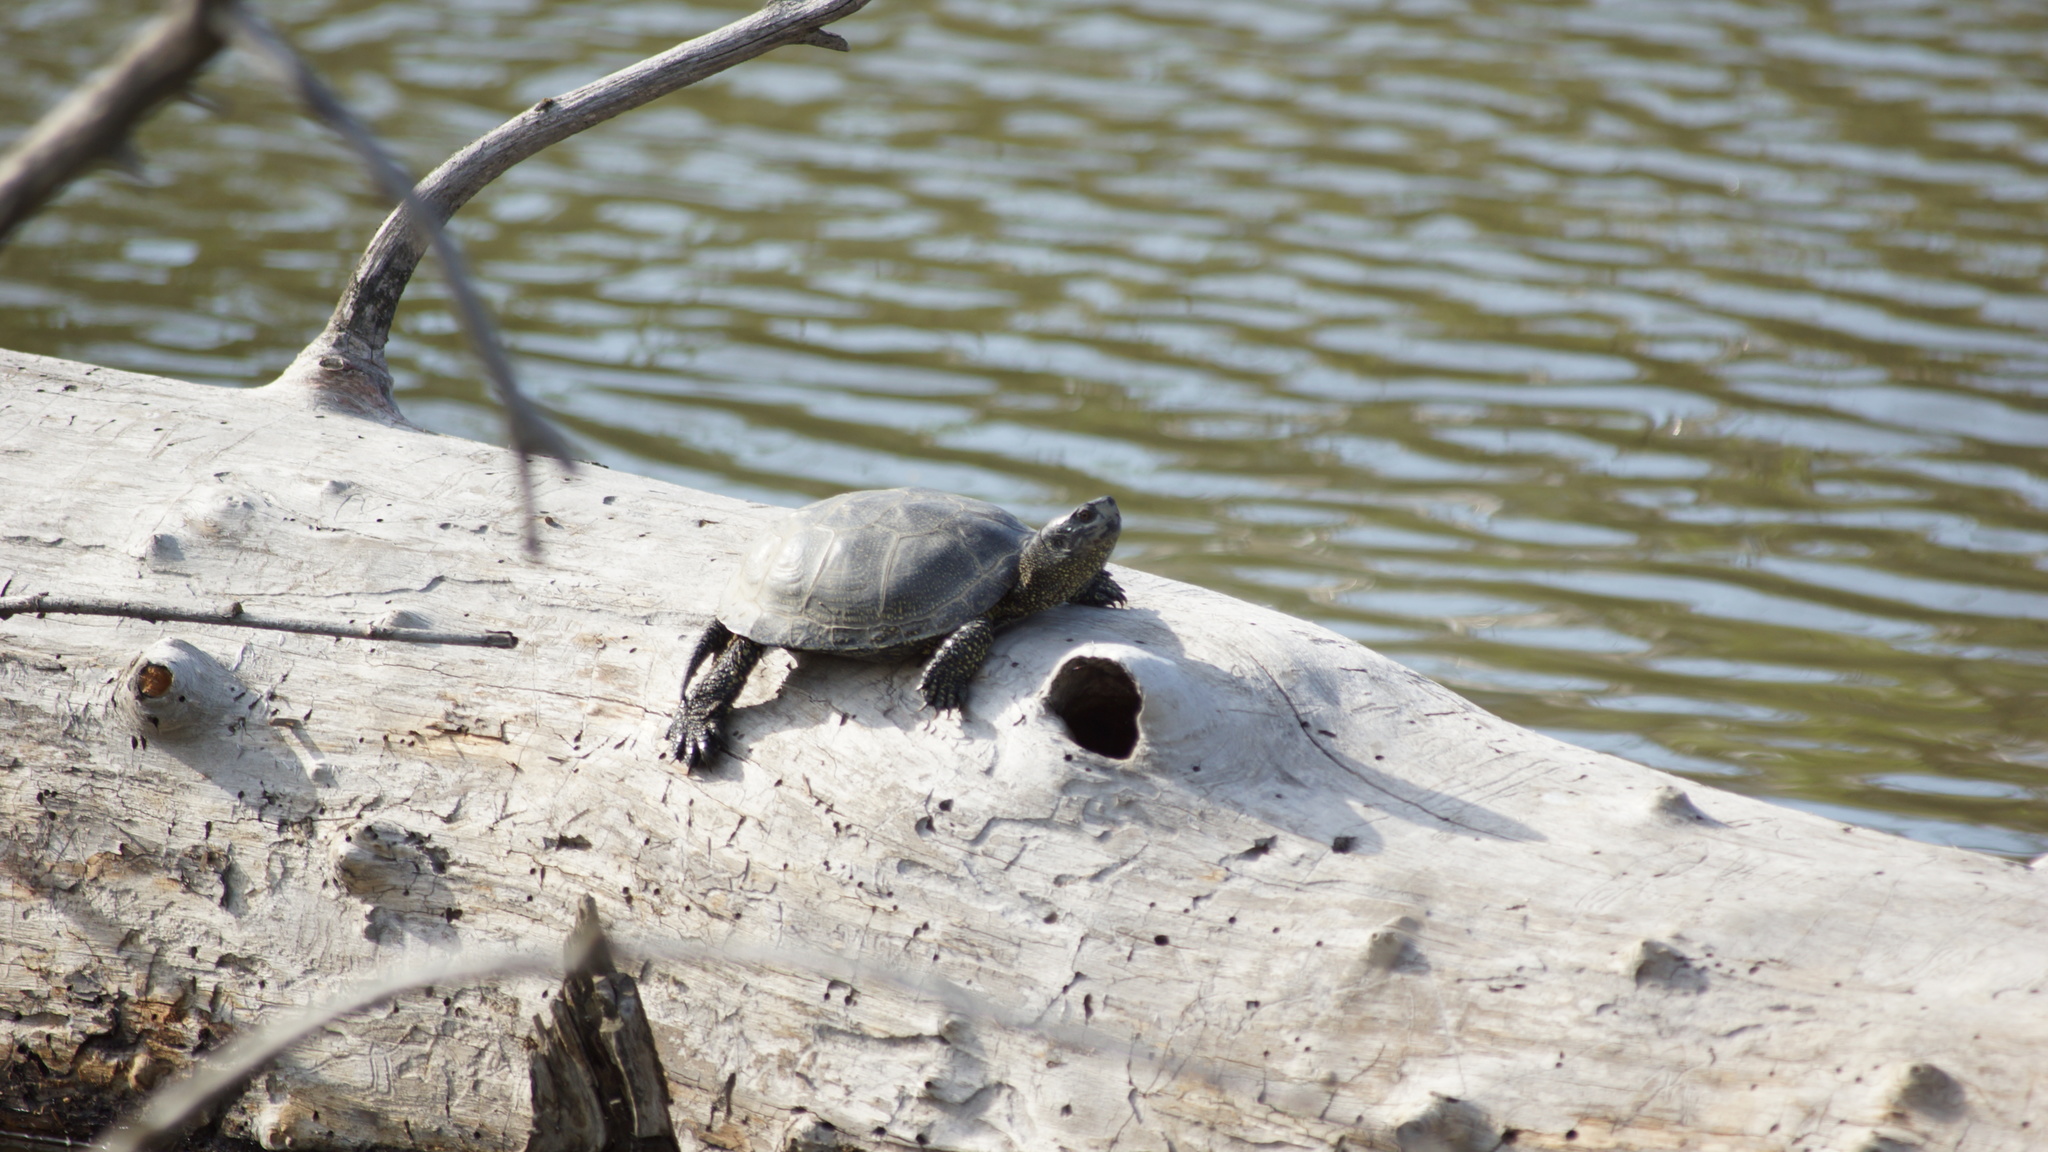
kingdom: Animalia
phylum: Chordata
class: Testudines
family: Emydidae
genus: Emys
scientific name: Emys orbicularis
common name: European pond turtle
